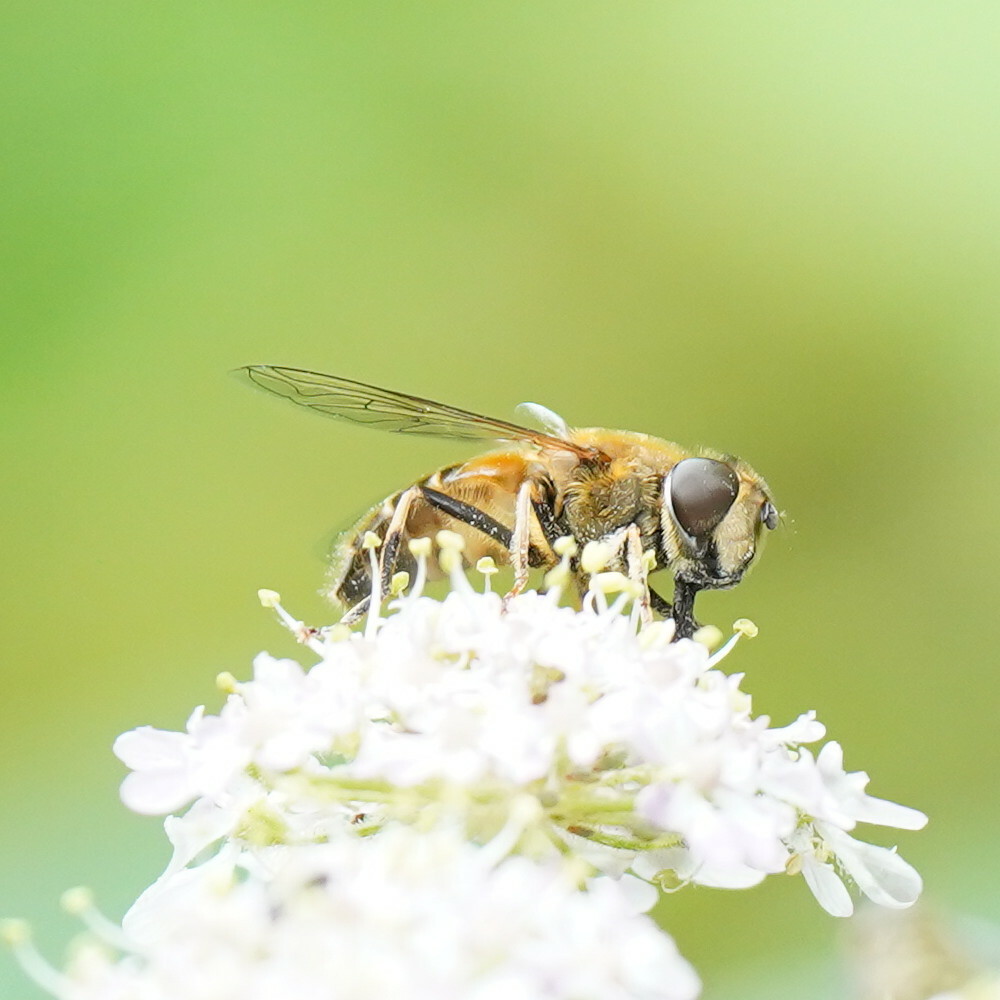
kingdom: Animalia
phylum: Arthropoda
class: Insecta
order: Diptera
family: Syrphidae
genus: Eristalis
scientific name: Eristalis pertinax
